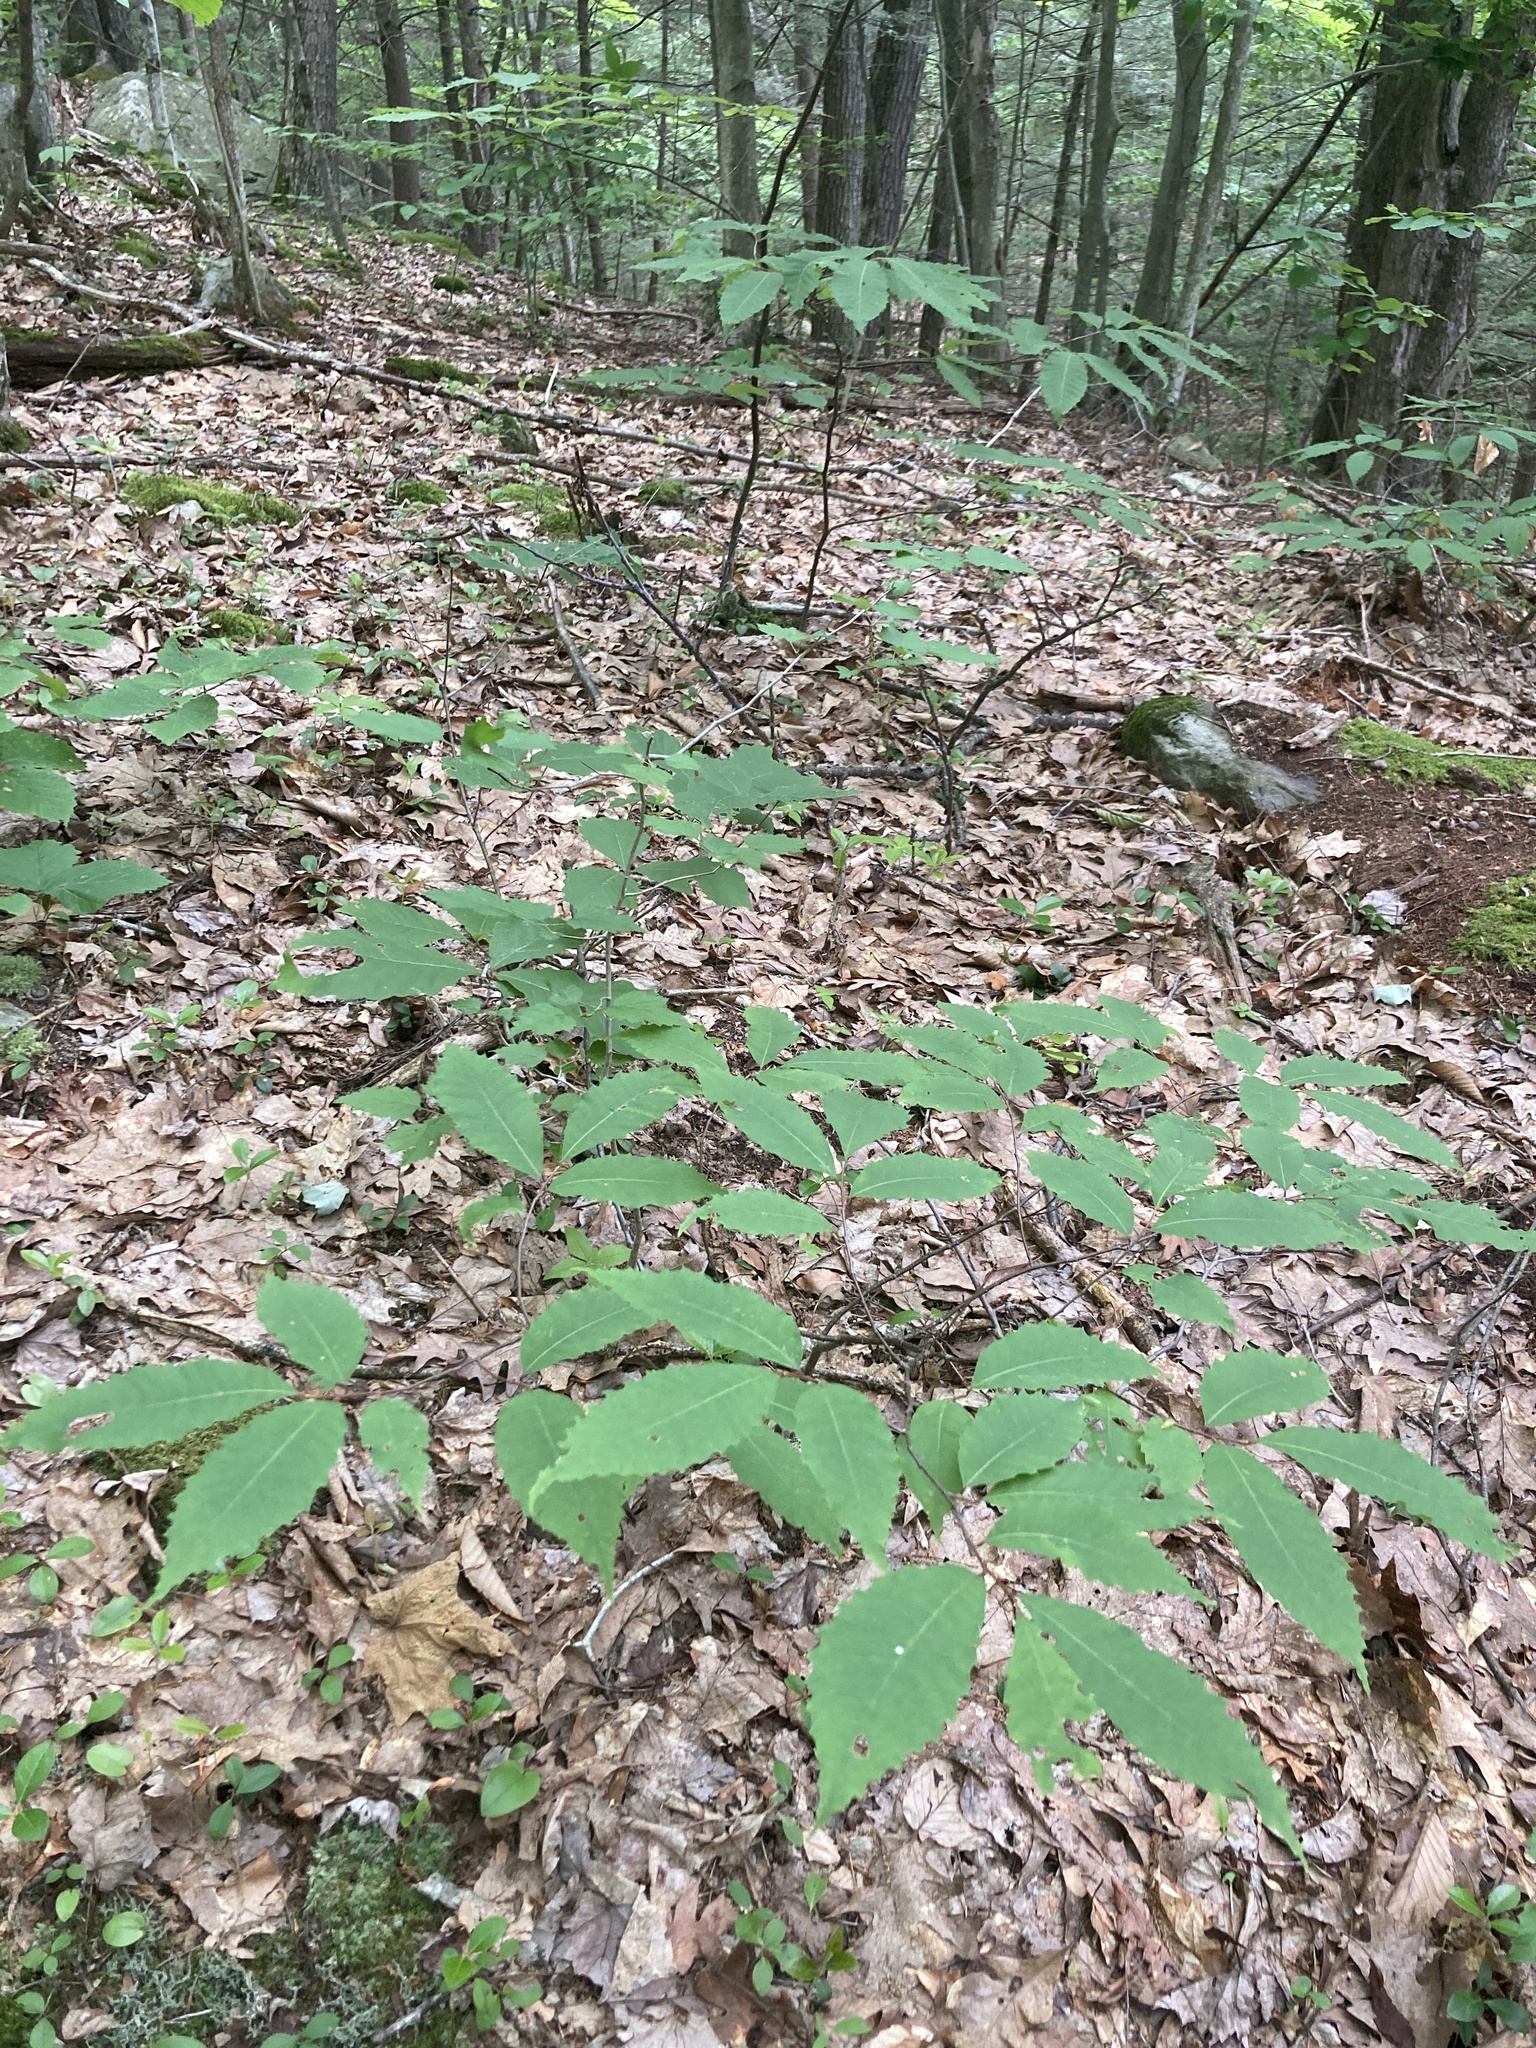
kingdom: Plantae
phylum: Tracheophyta
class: Magnoliopsida
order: Fagales
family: Fagaceae
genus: Castanea
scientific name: Castanea dentata
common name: American chestnut
